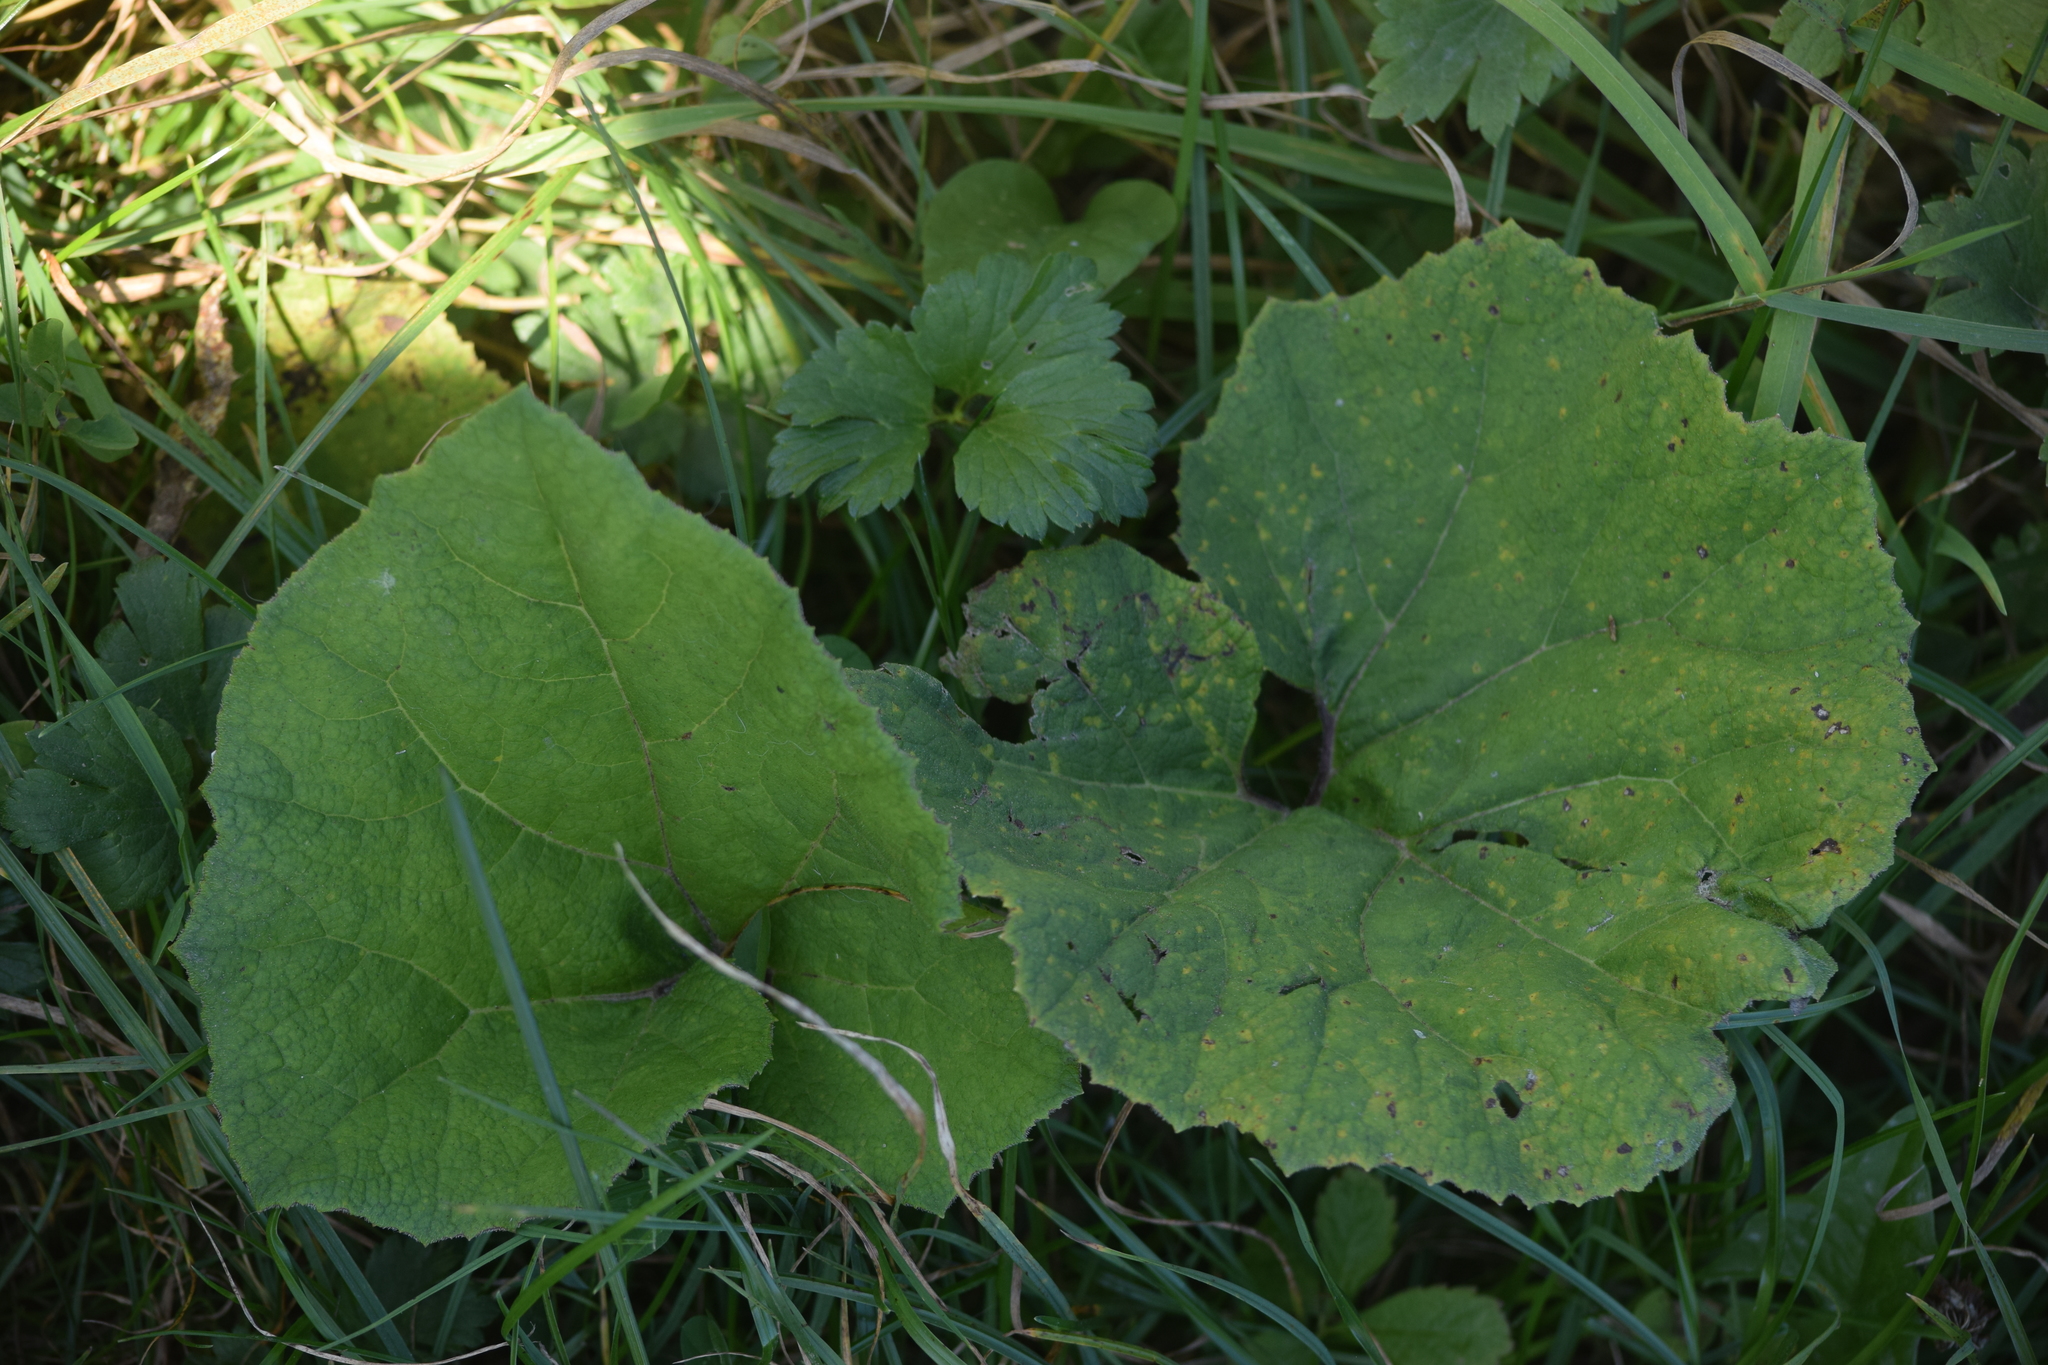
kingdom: Plantae
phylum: Tracheophyta
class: Magnoliopsida
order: Asterales
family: Asteraceae
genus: Tussilago
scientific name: Tussilago farfara
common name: Coltsfoot
